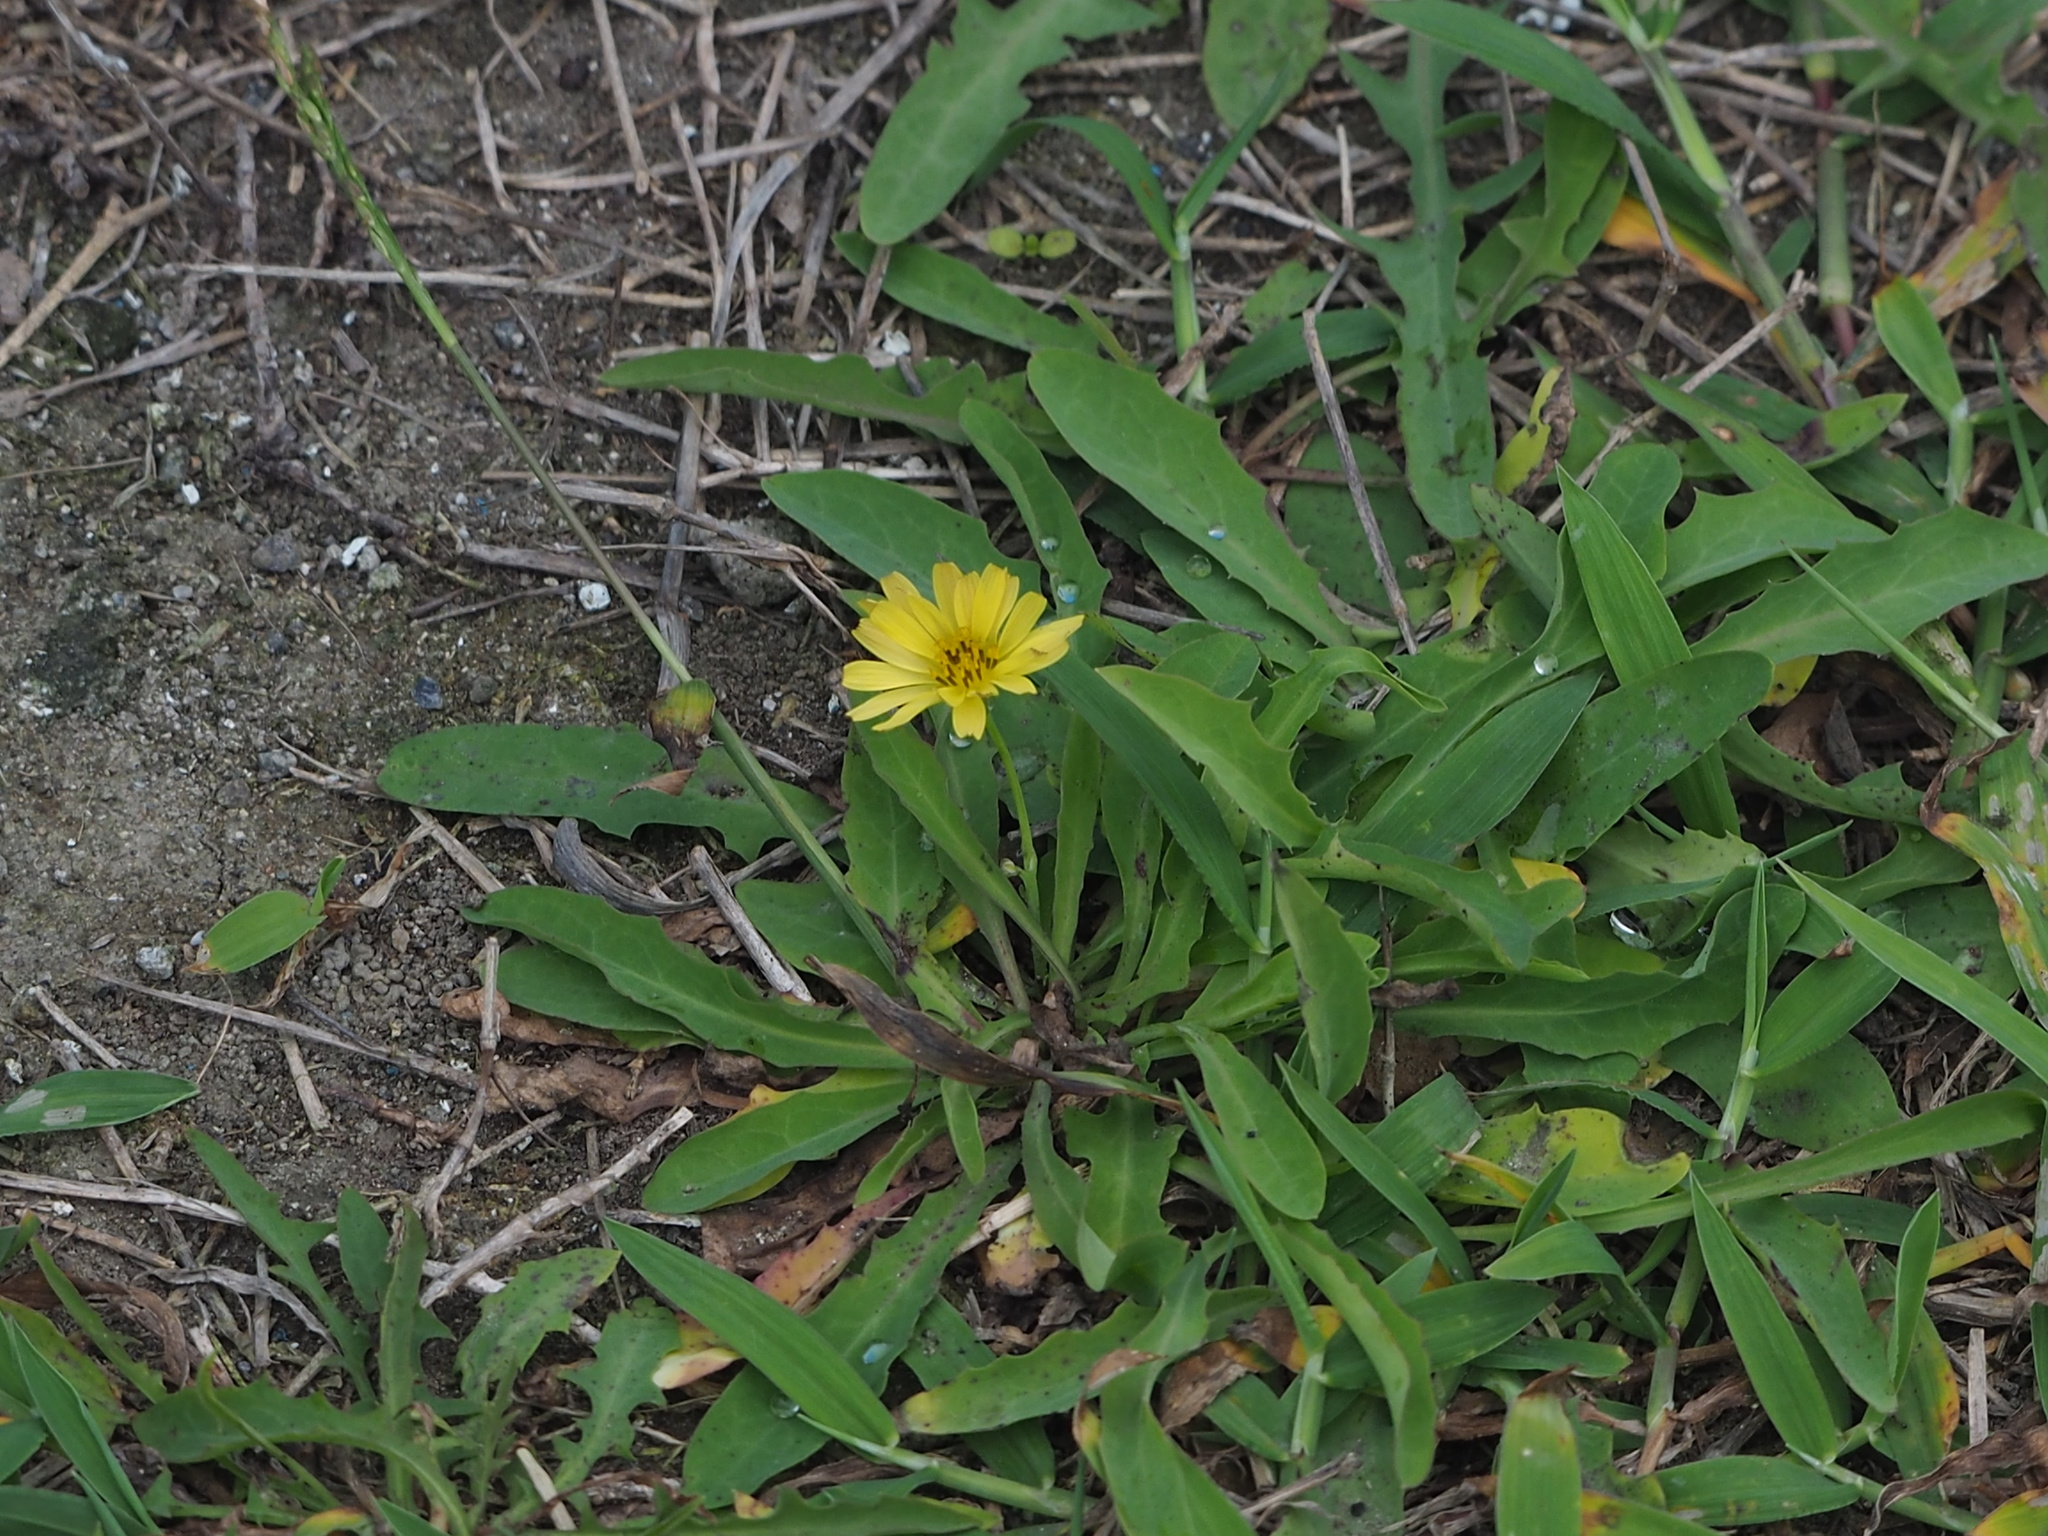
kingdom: Plantae
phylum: Tracheophyta
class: Magnoliopsida
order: Asterales
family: Asteraceae
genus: Crepidiastrum
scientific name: Crepidiastrum lanceolatum
